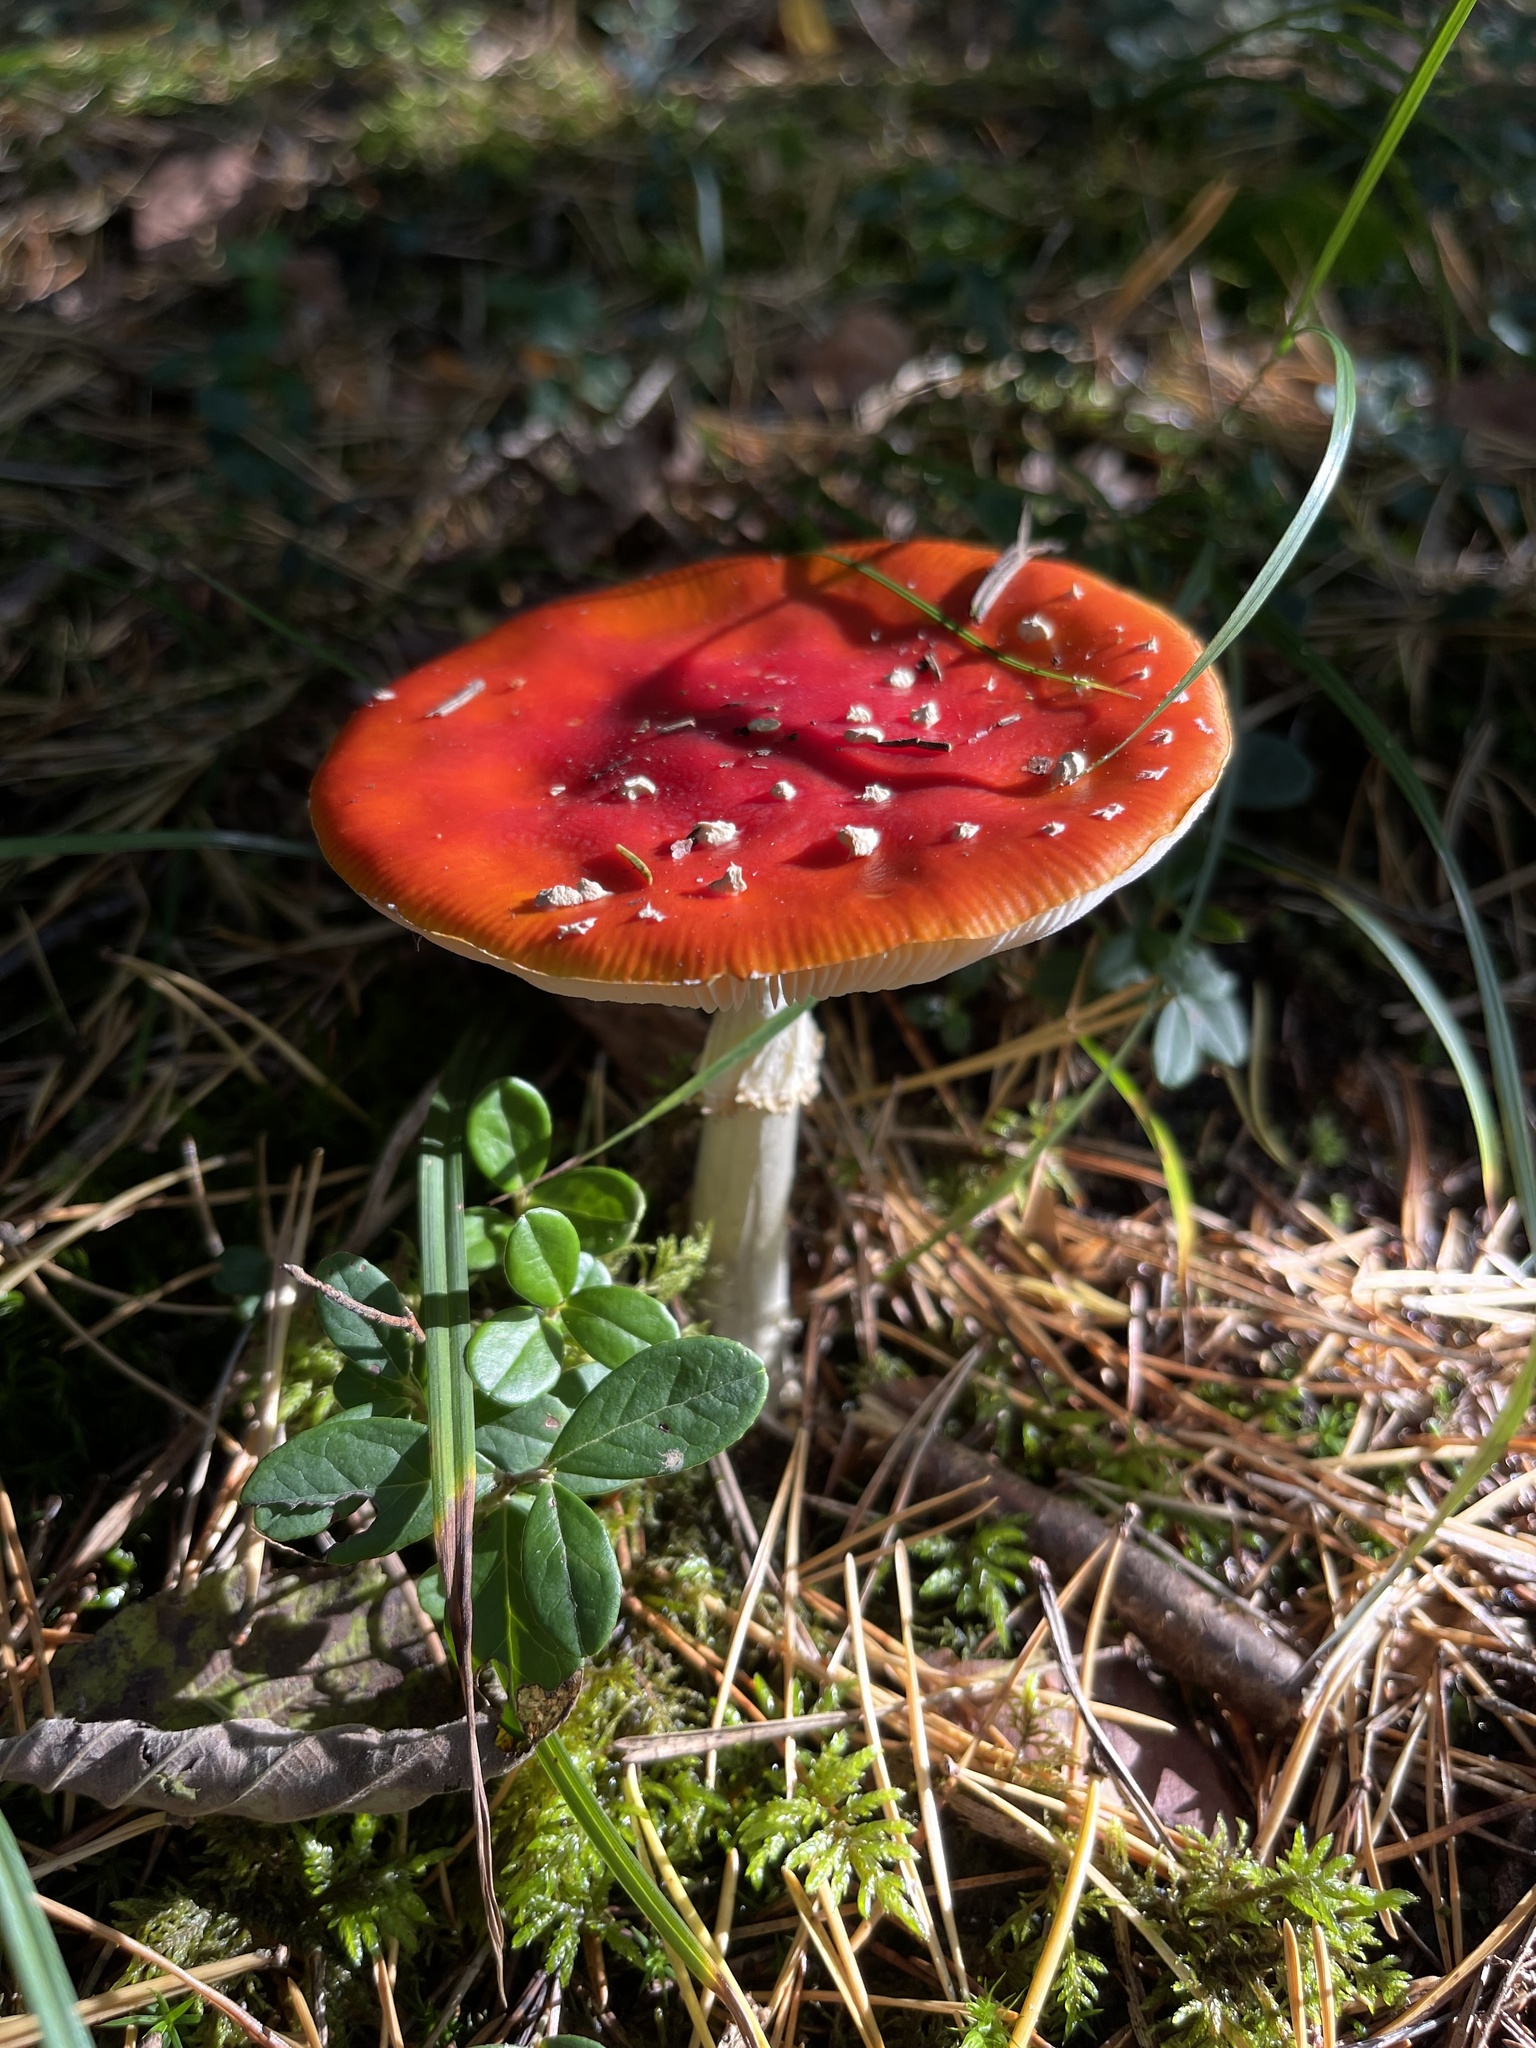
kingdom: Fungi
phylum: Basidiomycota
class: Agaricomycetes
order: Agaricales
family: Amanitaceae
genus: Amanita
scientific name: Amanita muscaria
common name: Fly agaric
